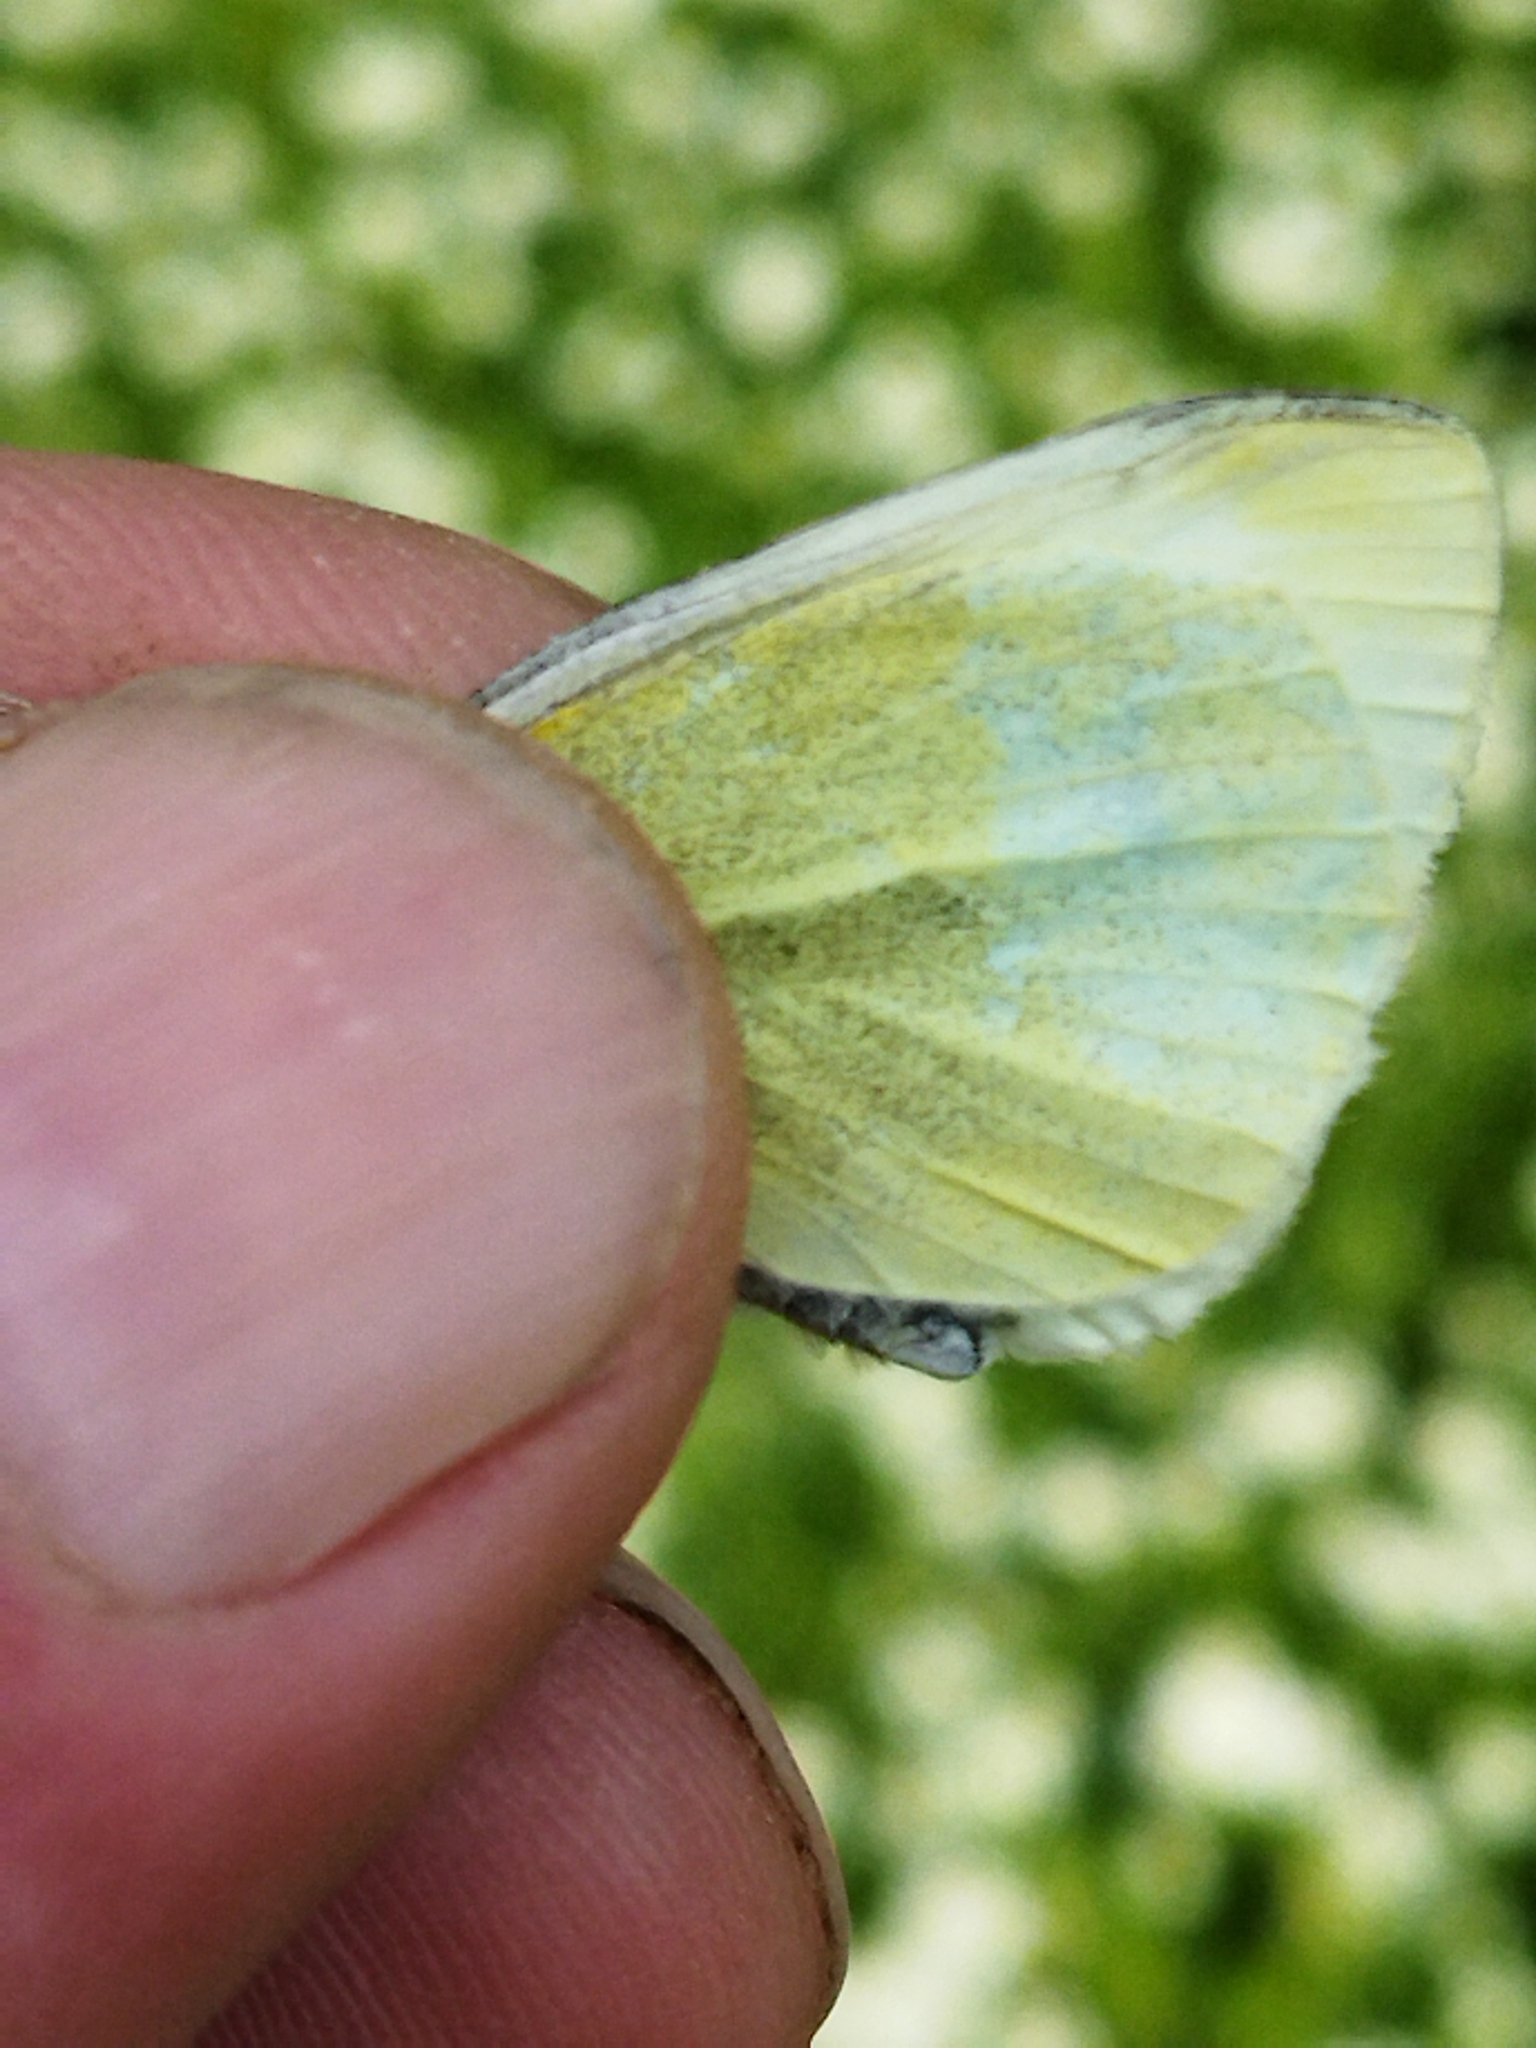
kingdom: Animalia
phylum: Arthropoda
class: Insecta
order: Lepidoptera
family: Pieridae
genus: Pieris
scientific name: Pieris rapae
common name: Small white
